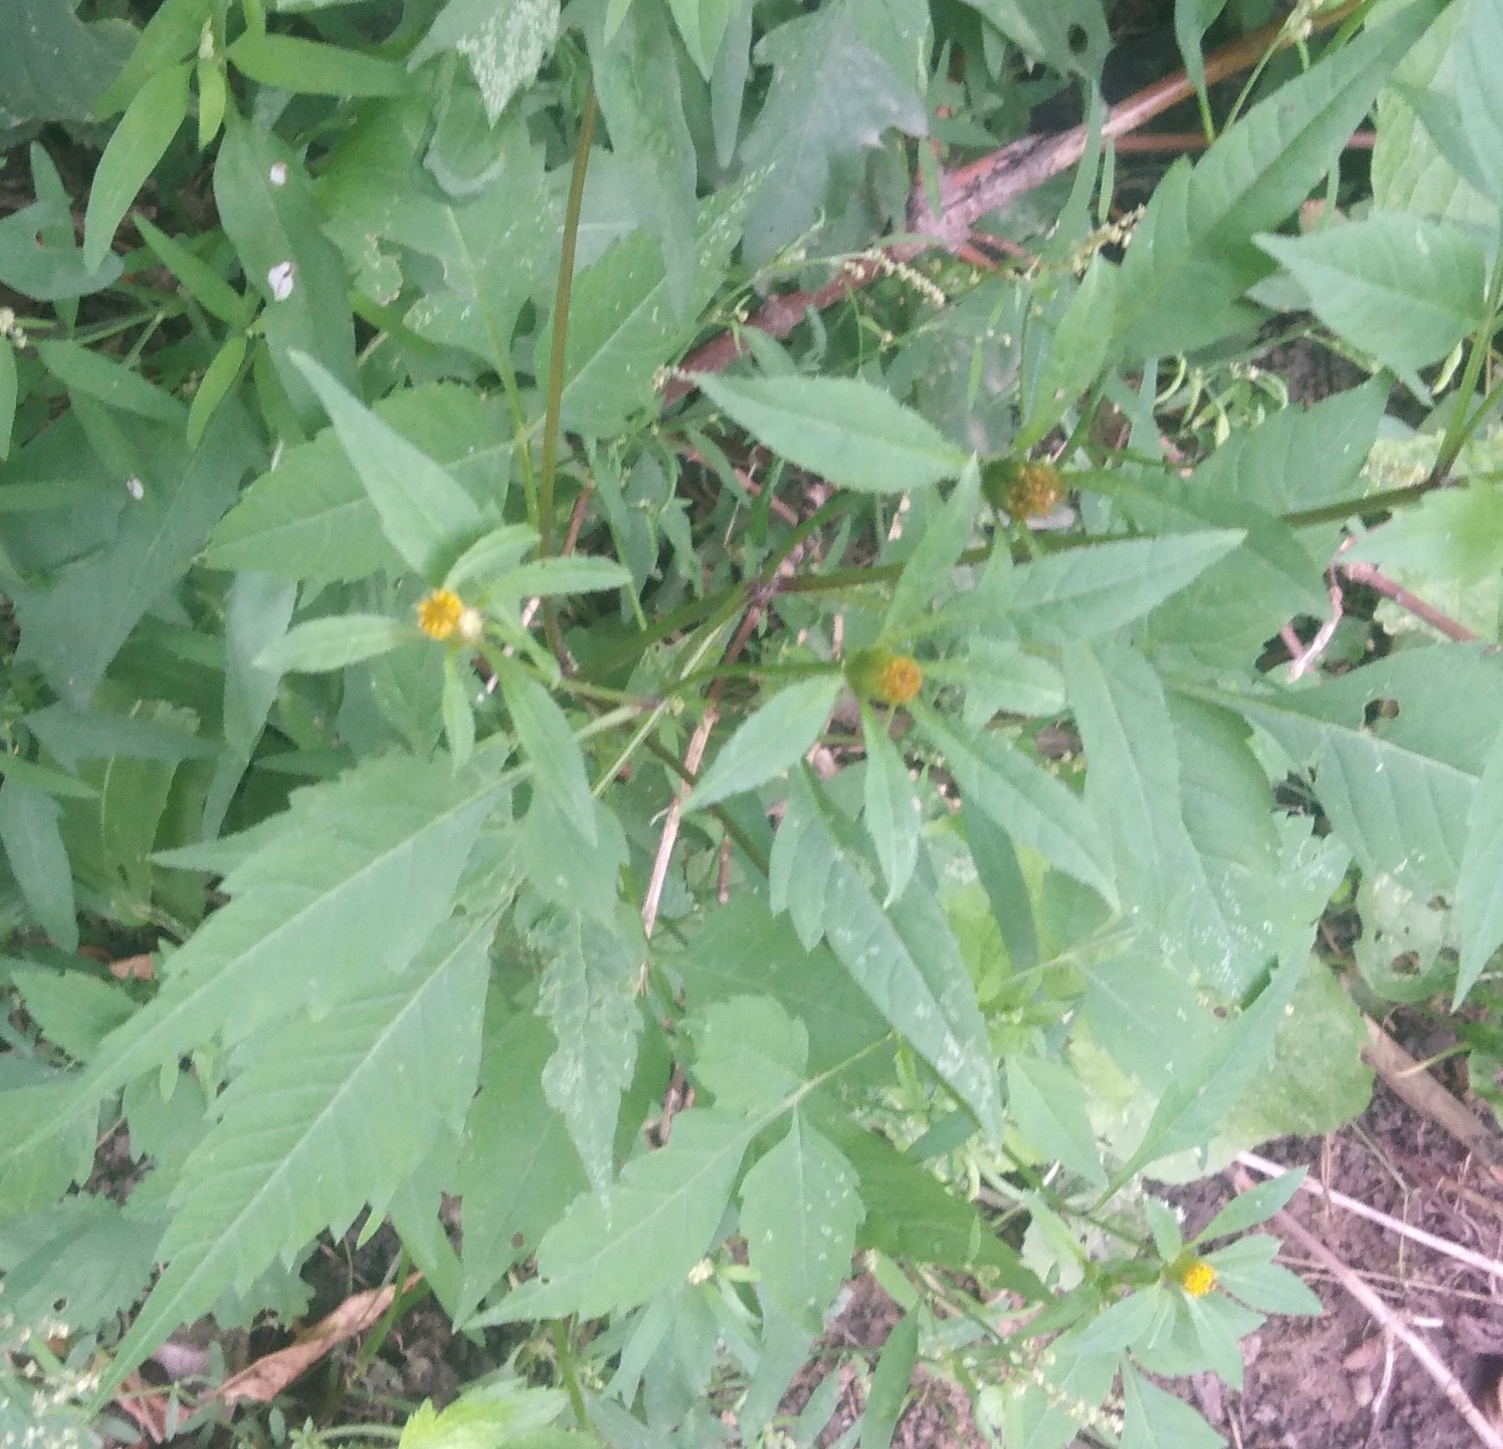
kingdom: Plantae
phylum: Tracheophyta
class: Magnoliopsida
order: Asterales
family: Asteraceae
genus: Bidens
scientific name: Bidens frondosa
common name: Beggarticks
